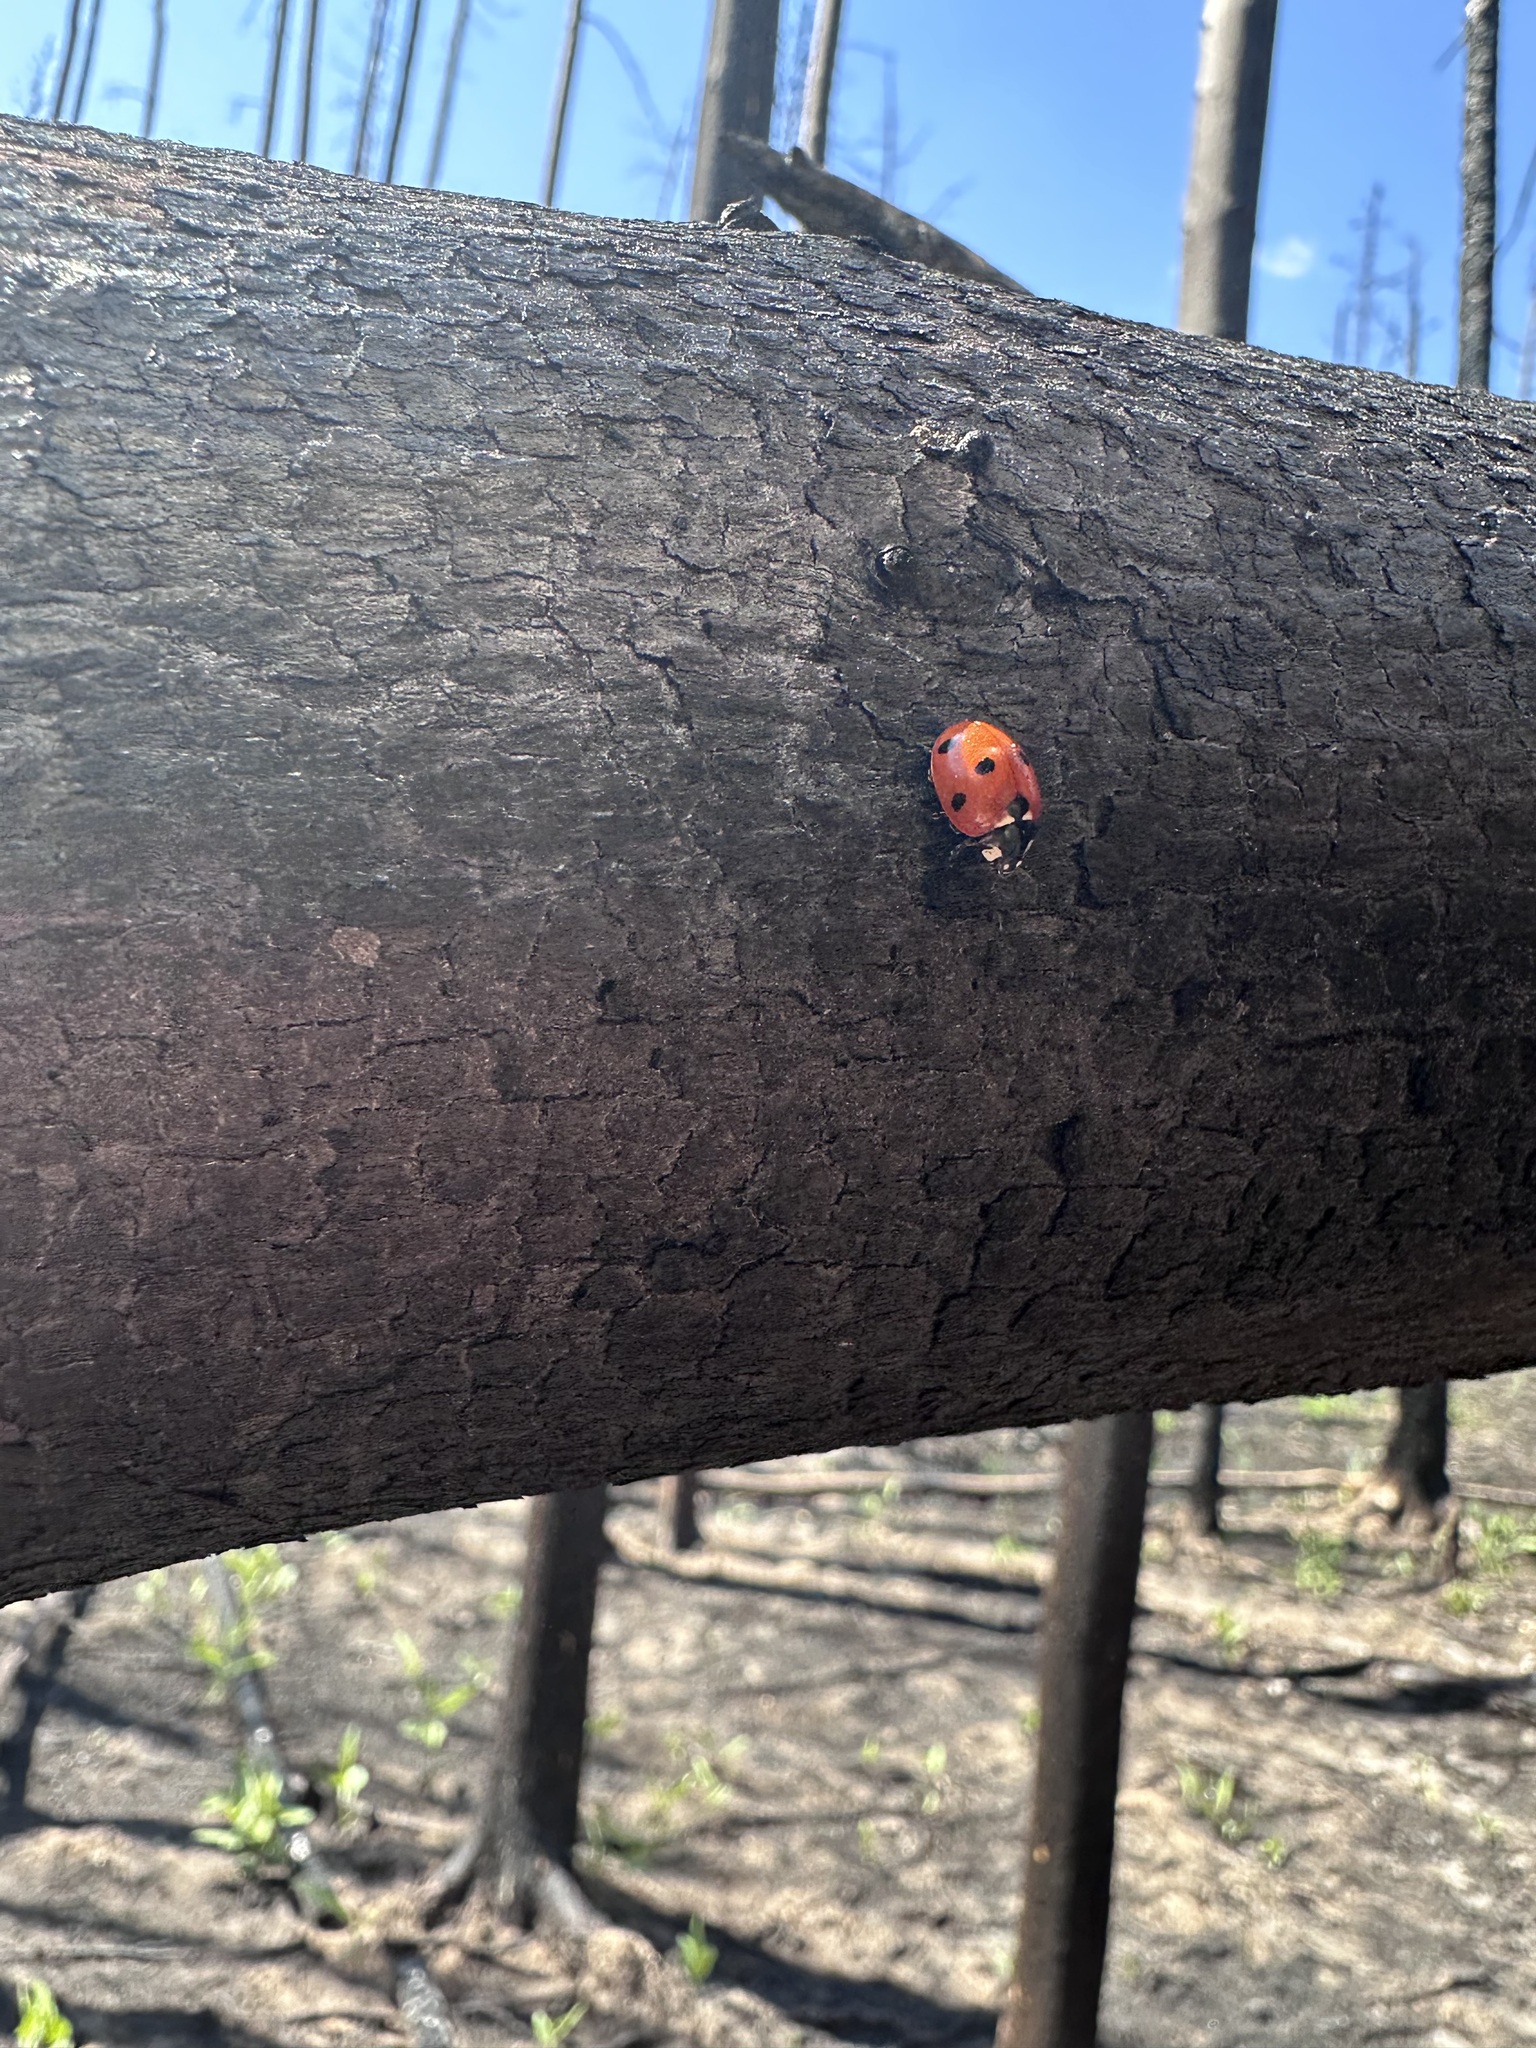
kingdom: Animalia
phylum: Arthropoda
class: Insecta
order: Coleoptera
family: Coccinellidae
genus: Coccinella
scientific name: Coccinella septempunctata
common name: Sevenspotted lady beetle
